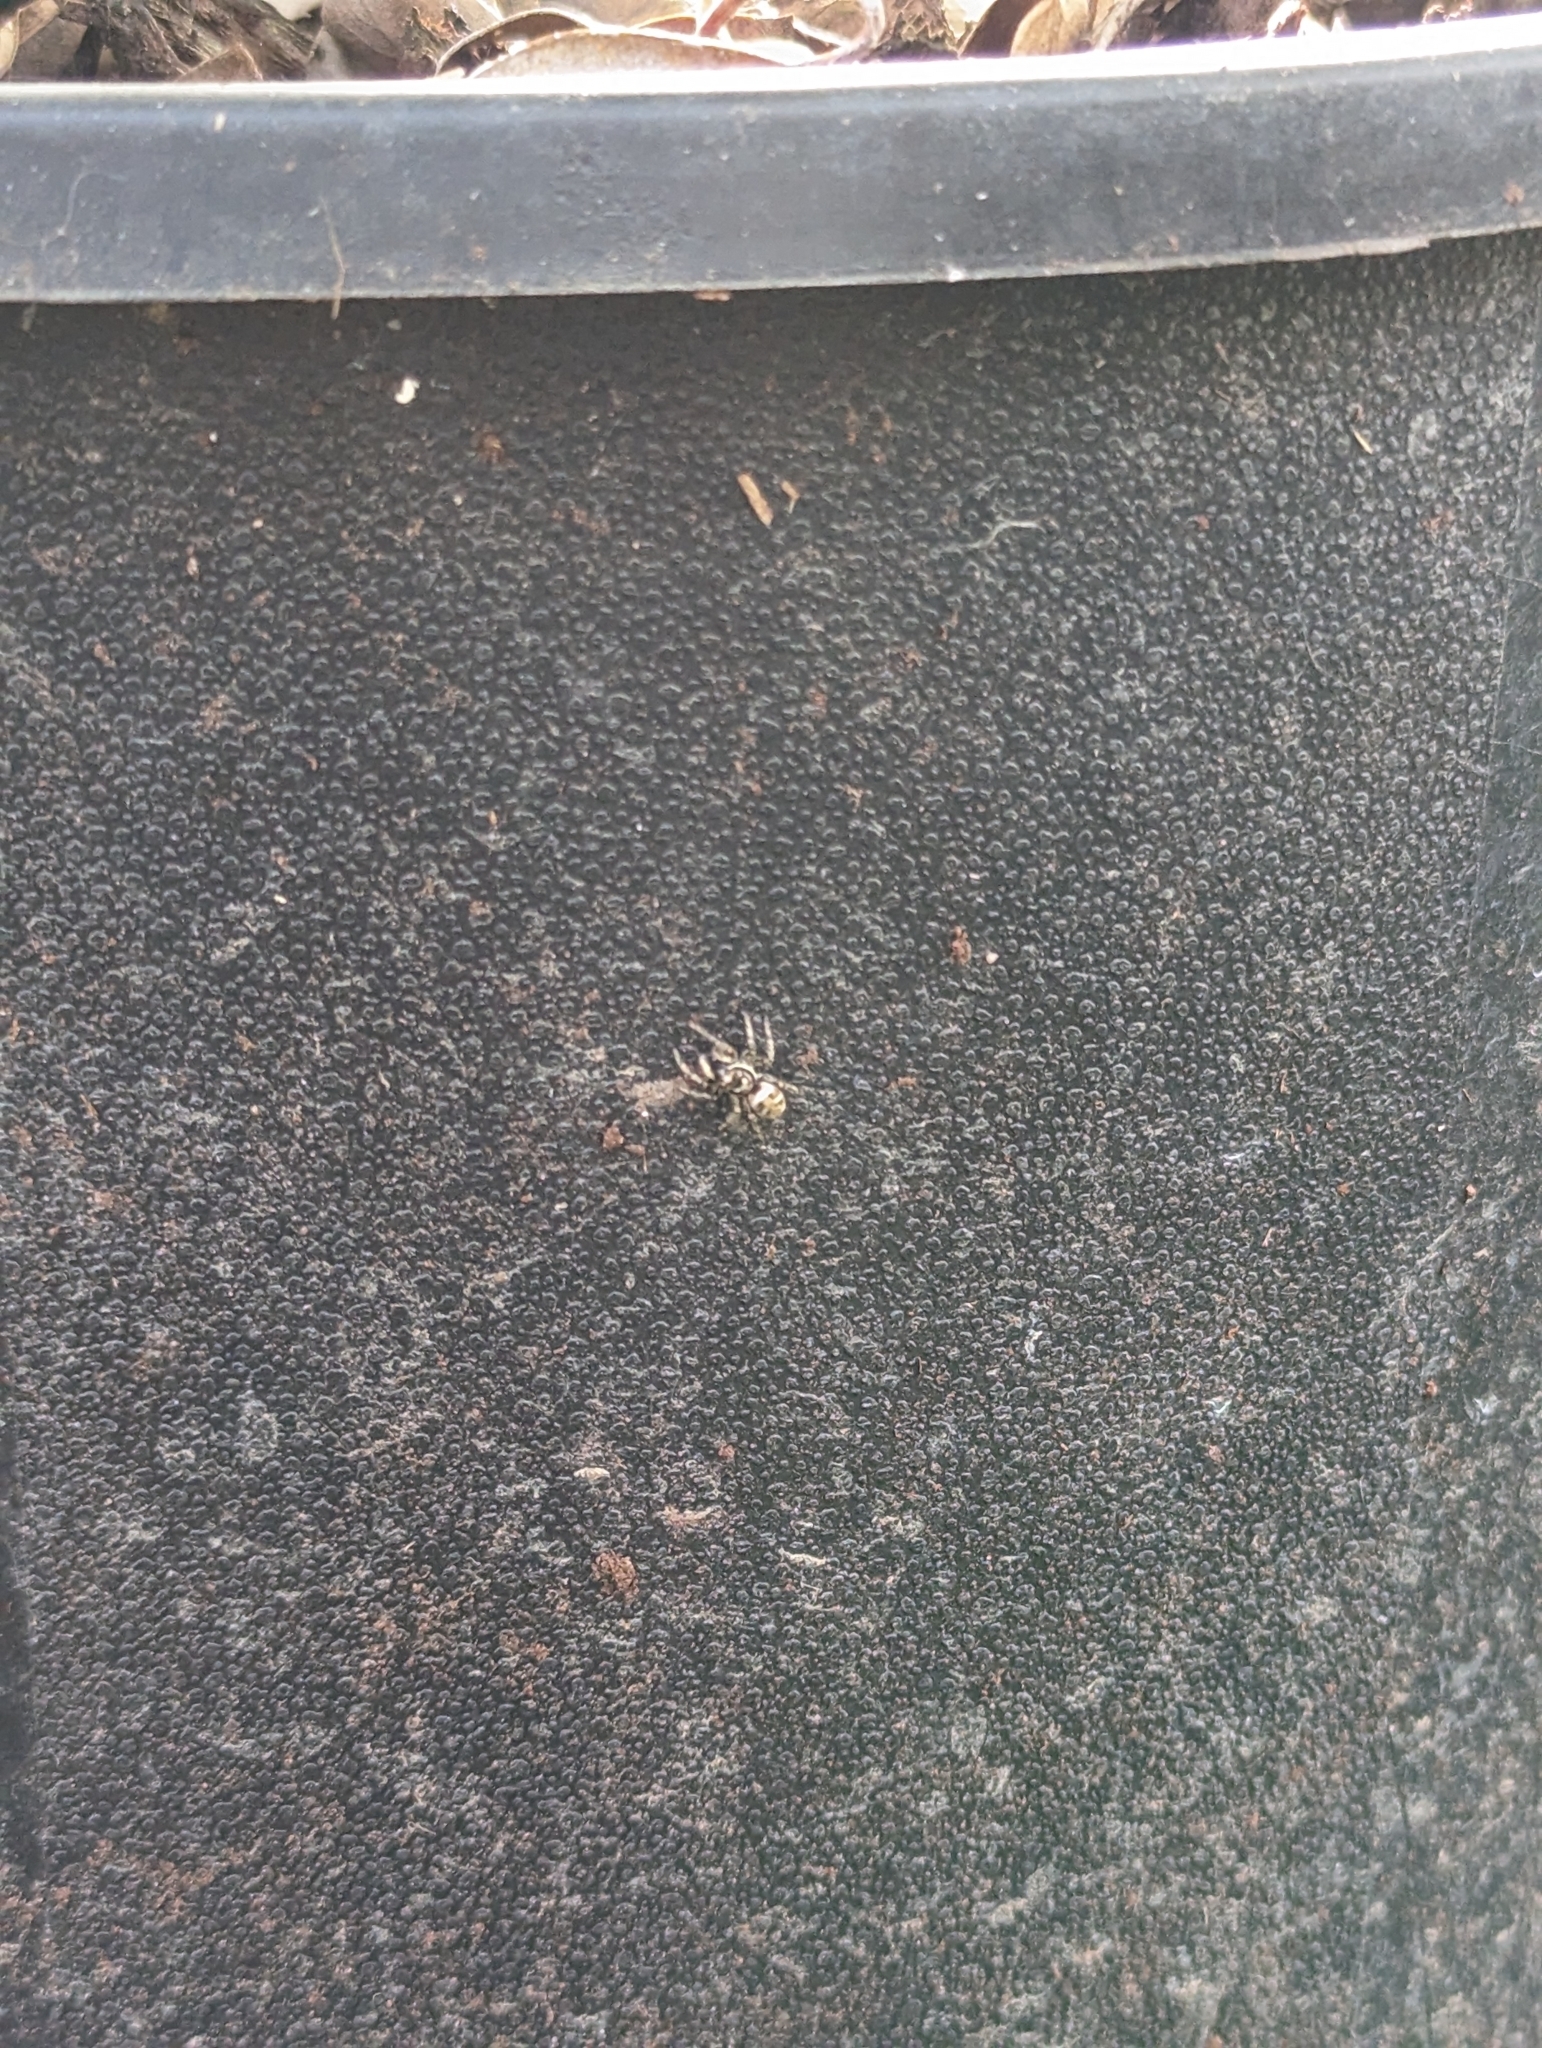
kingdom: Animalia
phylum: Arthropoda
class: Arachnida
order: Araneae
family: Salticidae
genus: Salticus
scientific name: Salticus scenicus
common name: Zebra jumper
